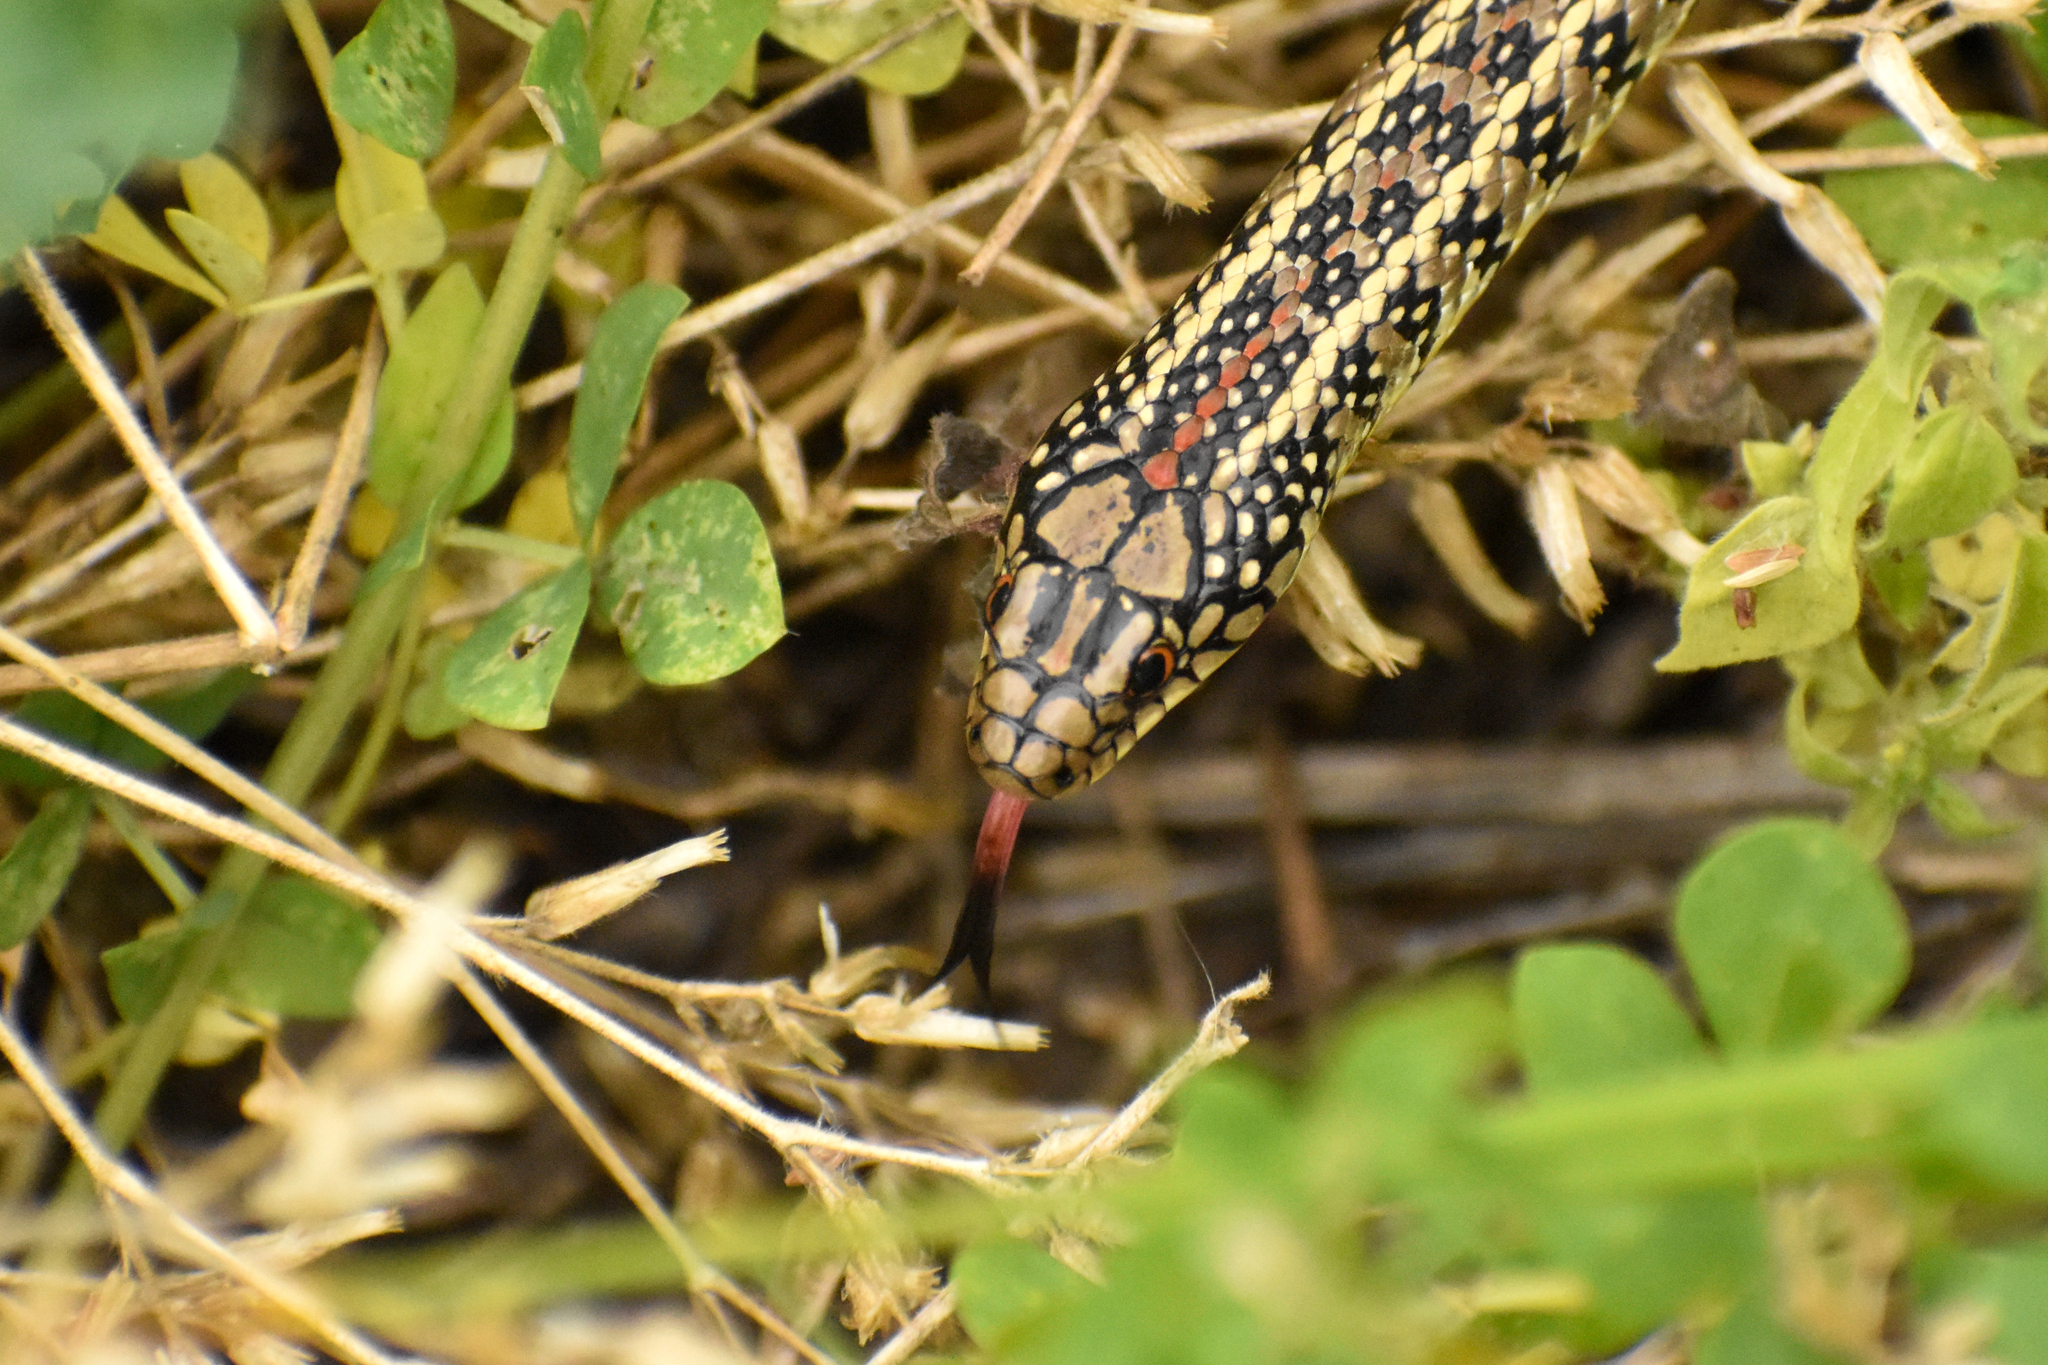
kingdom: Animalia
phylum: Chordata
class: Squamata
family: Colubridae
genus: Lygophis
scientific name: Lygophis anomalus
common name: English common name not available
